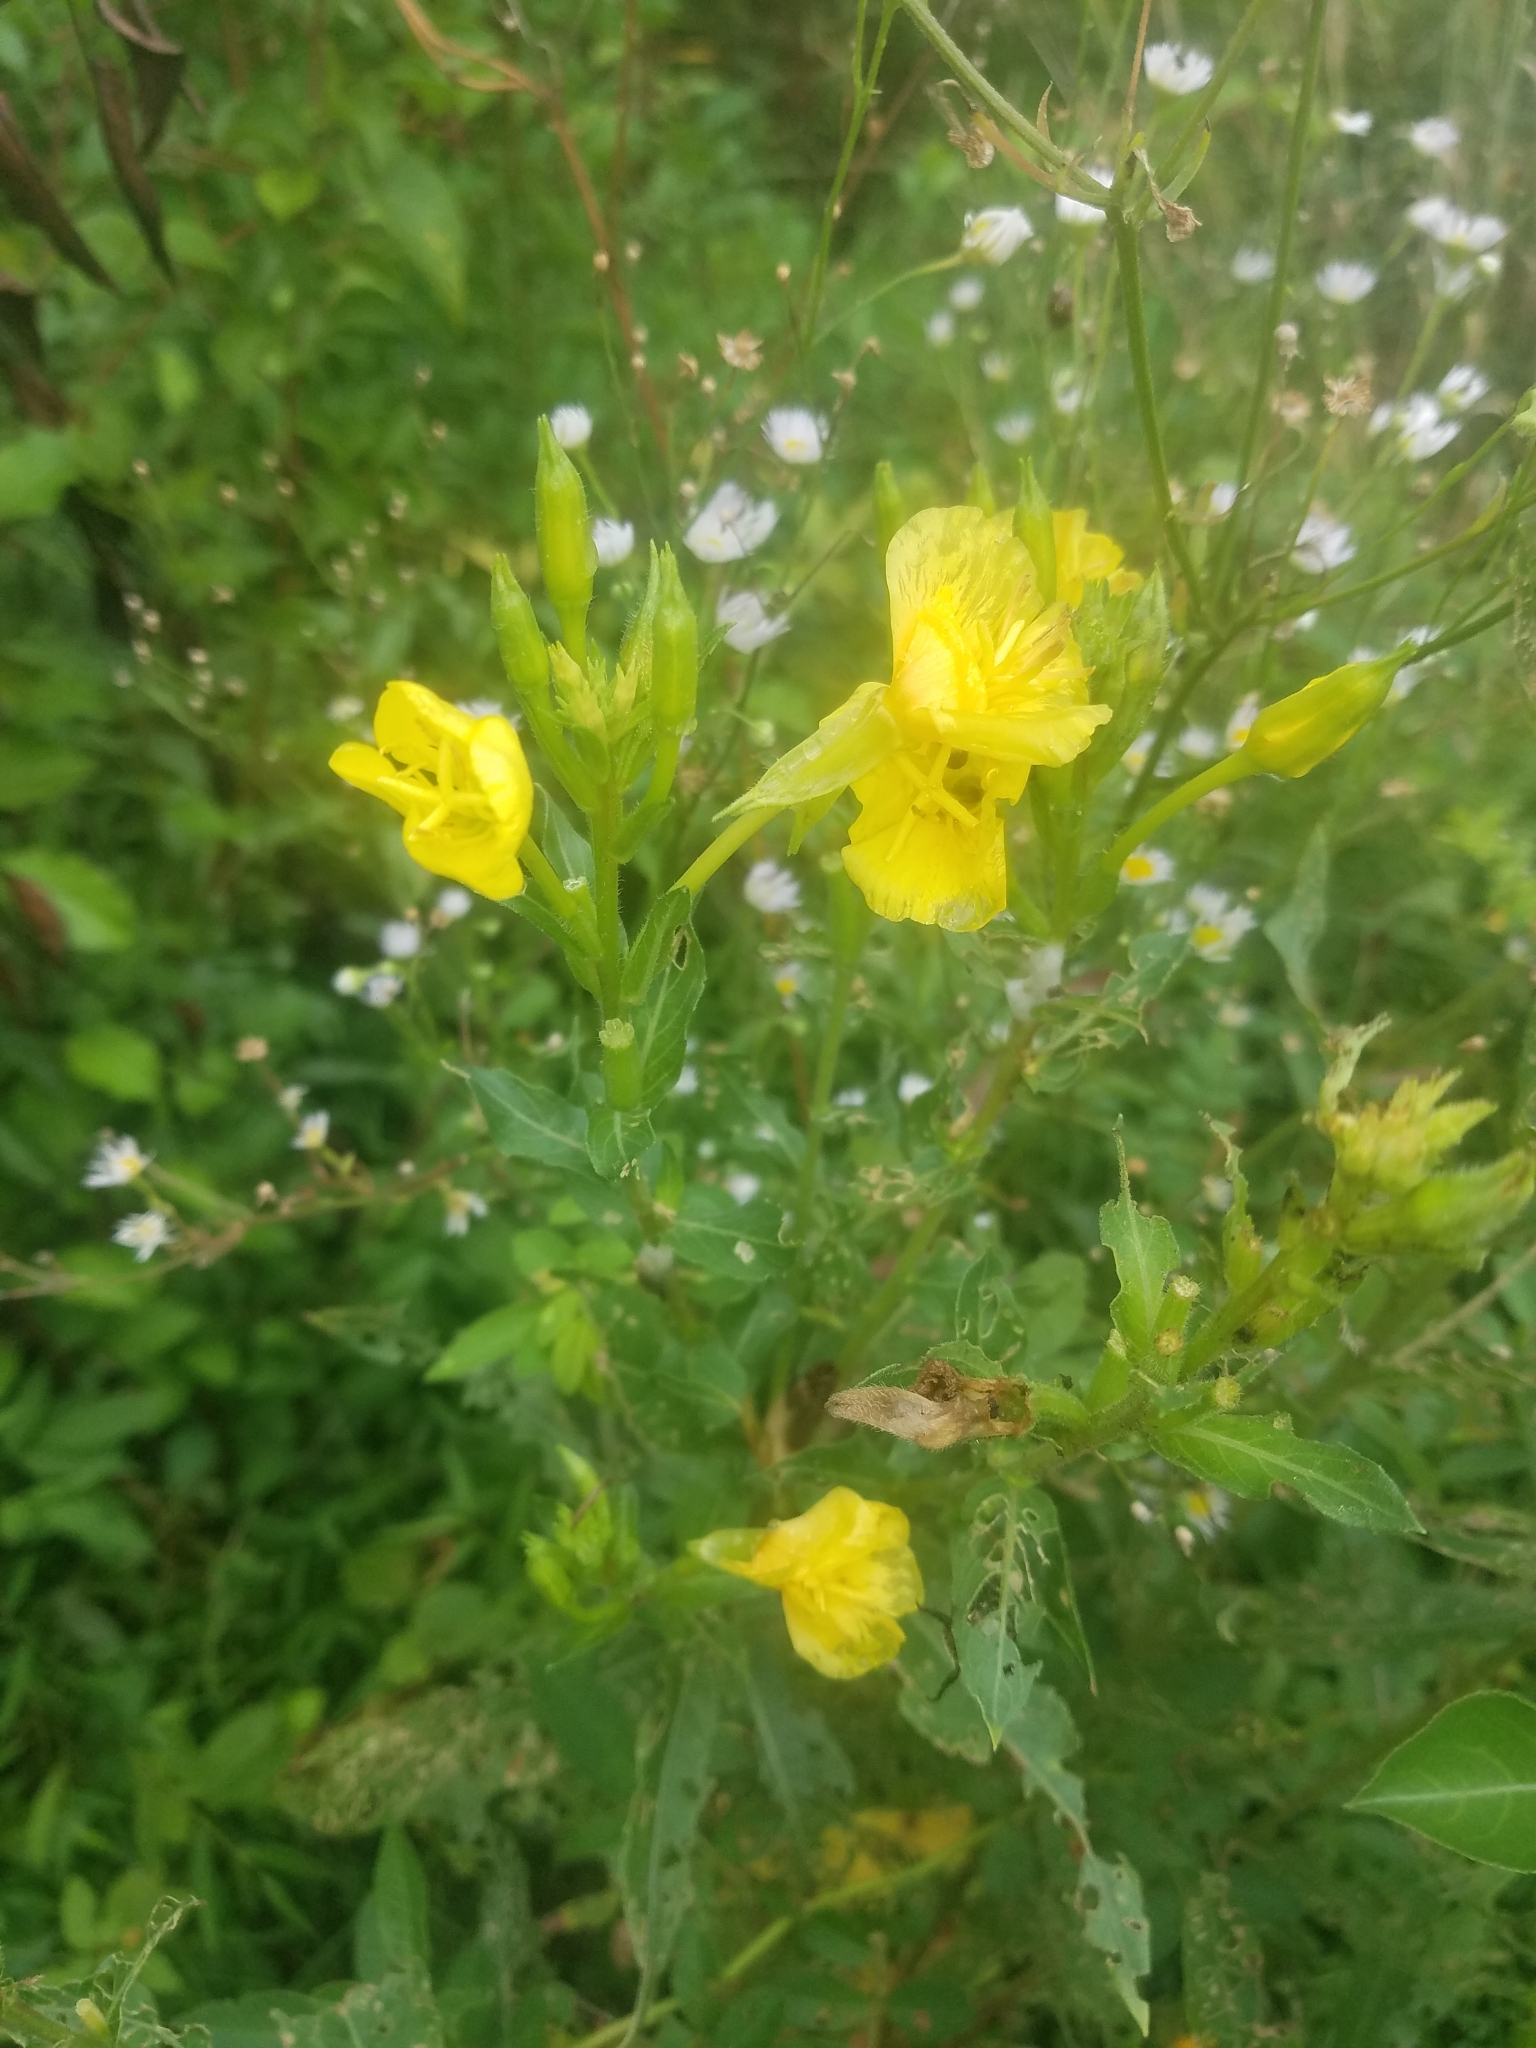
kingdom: Plantae
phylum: Tracheophyta
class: Magnoliopsida
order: Myrtales
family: Onagraceae
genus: Oenothera
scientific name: Oenothera biennis
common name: Common evening-primrose
